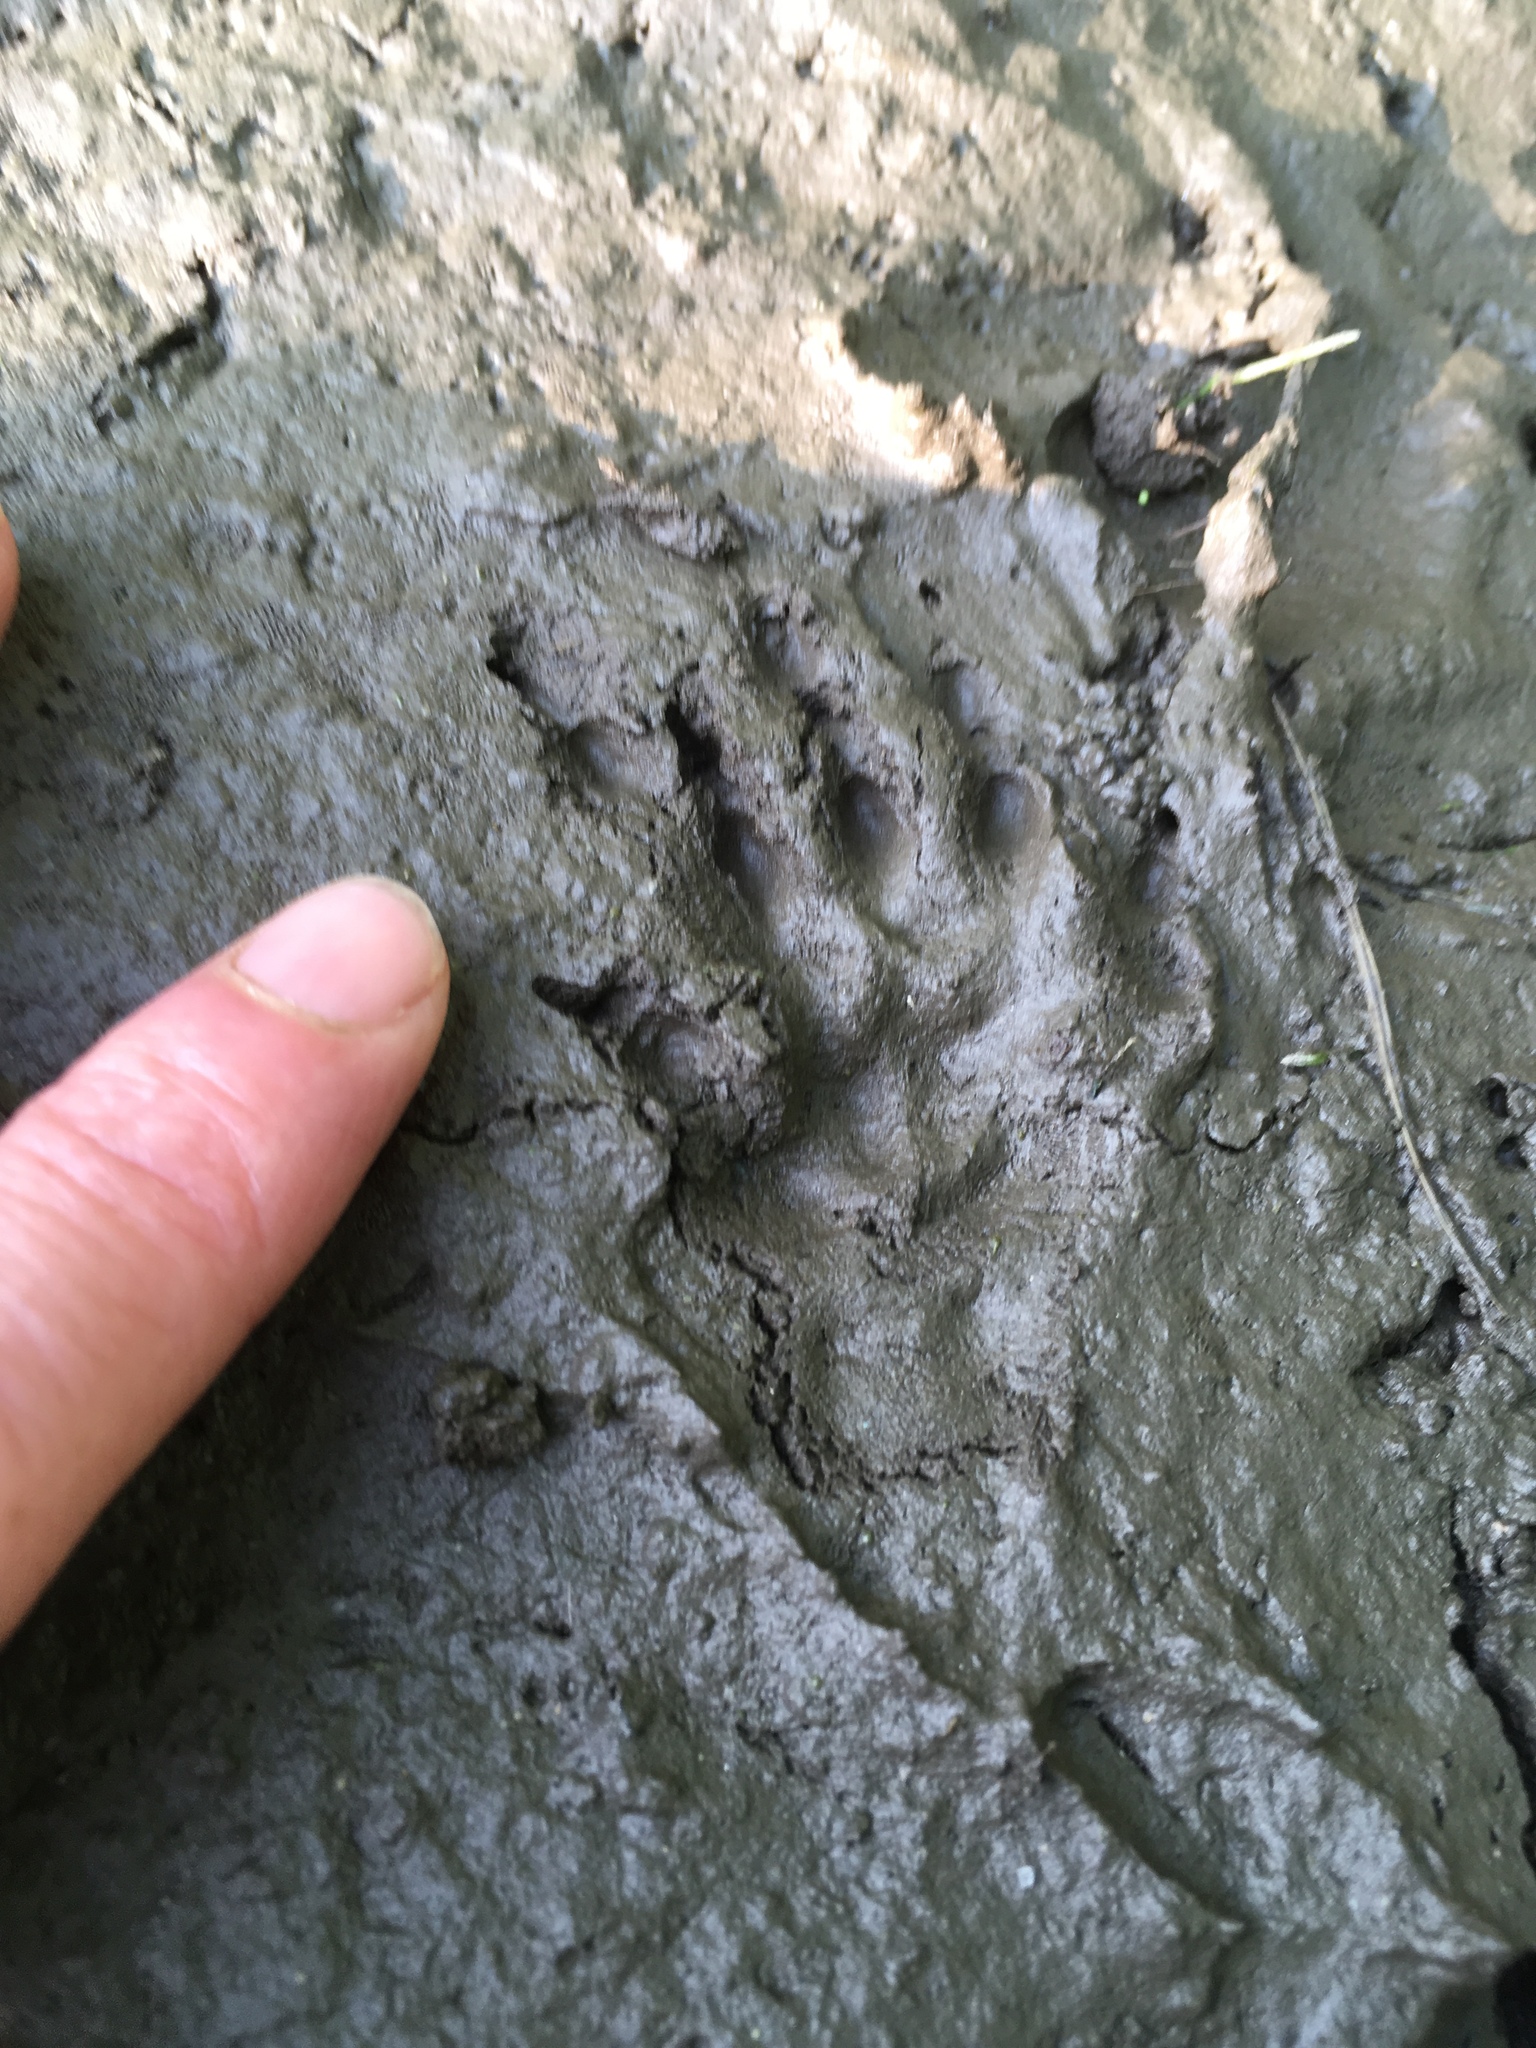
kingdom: Animalia
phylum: Chordata
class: Mammalia
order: Rodentia
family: Sciuridae
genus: Marmota
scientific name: Marmota monax
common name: Groundhog
